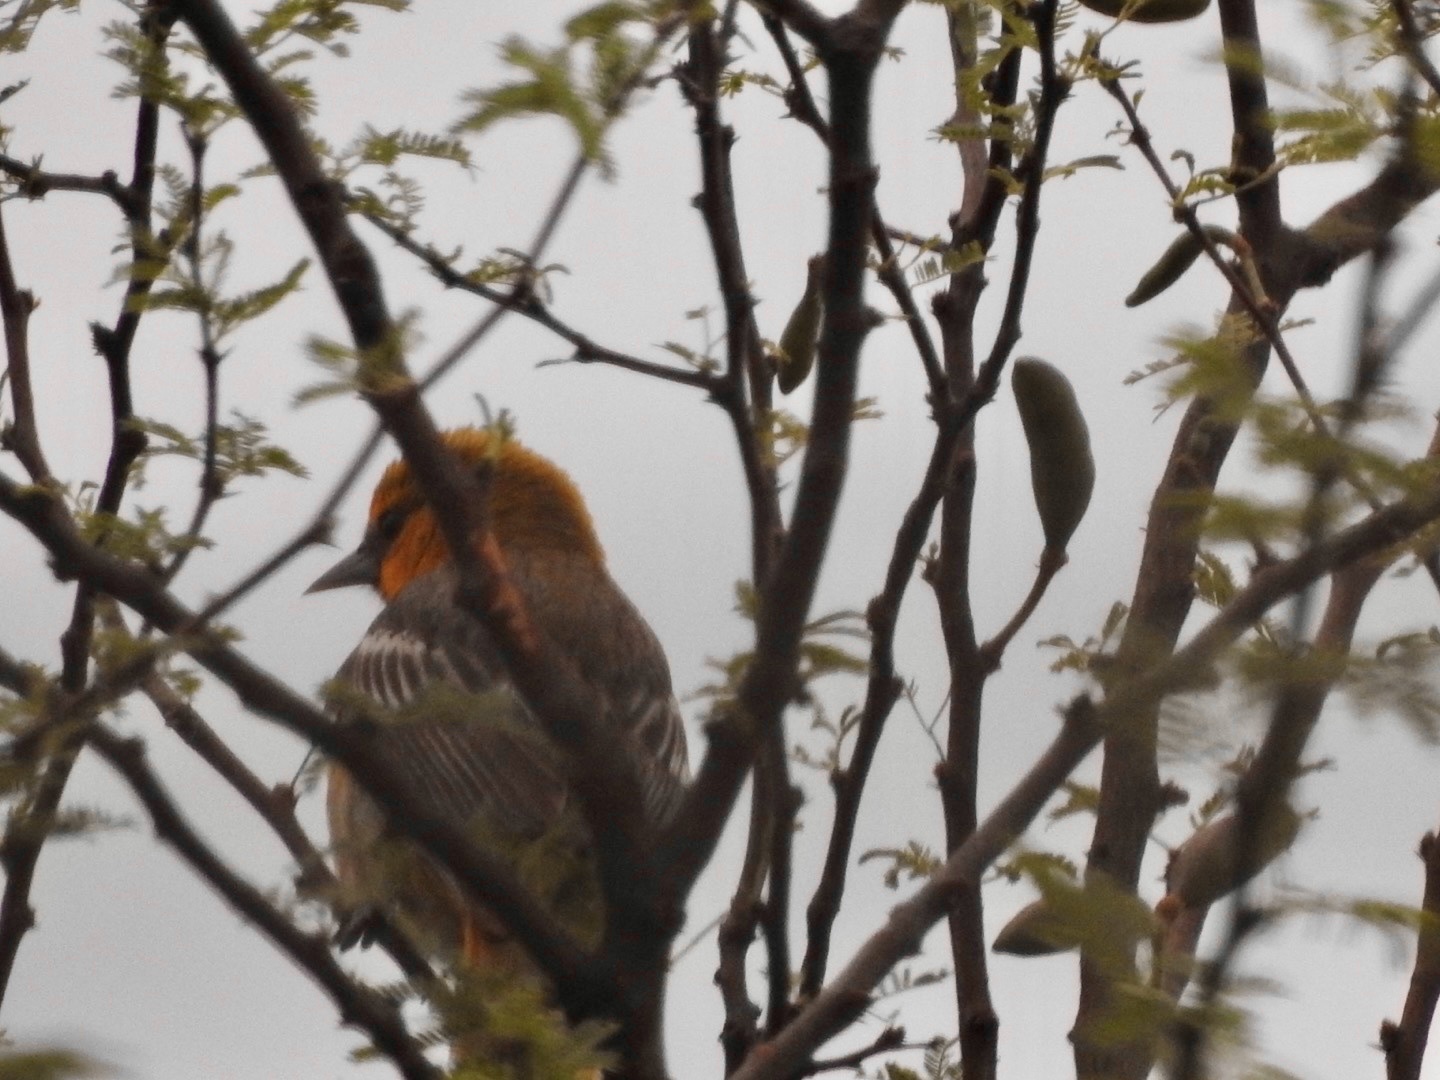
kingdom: Animalia
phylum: Chordata
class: Aves
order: Passeriformes
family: Icteridae
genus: Icterus
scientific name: Icterus bullockii
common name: Bullock's oriole
